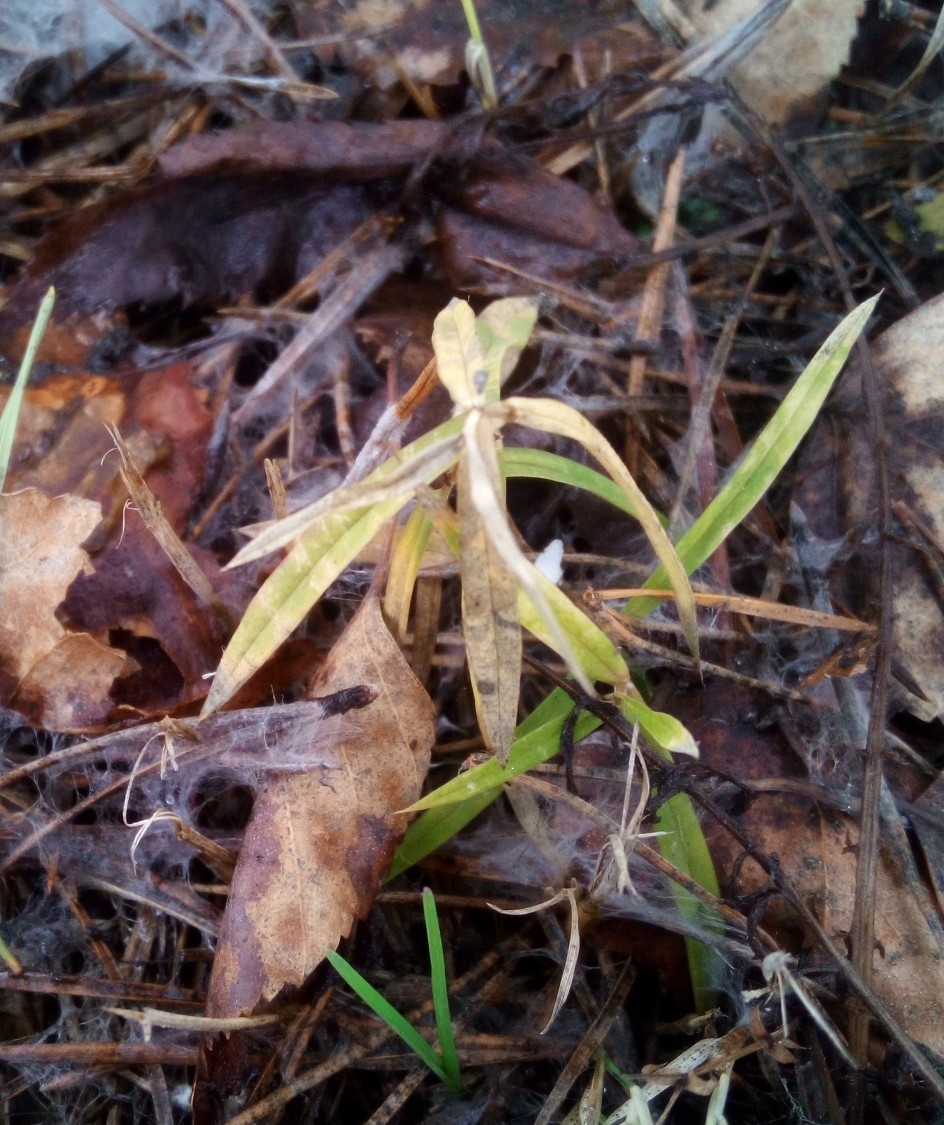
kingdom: Plantae
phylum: Tracheophyta
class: Magnoliopsida
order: Caryophyllales
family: Caryophyllaceae
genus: Rabelera
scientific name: Rabelera holostea
